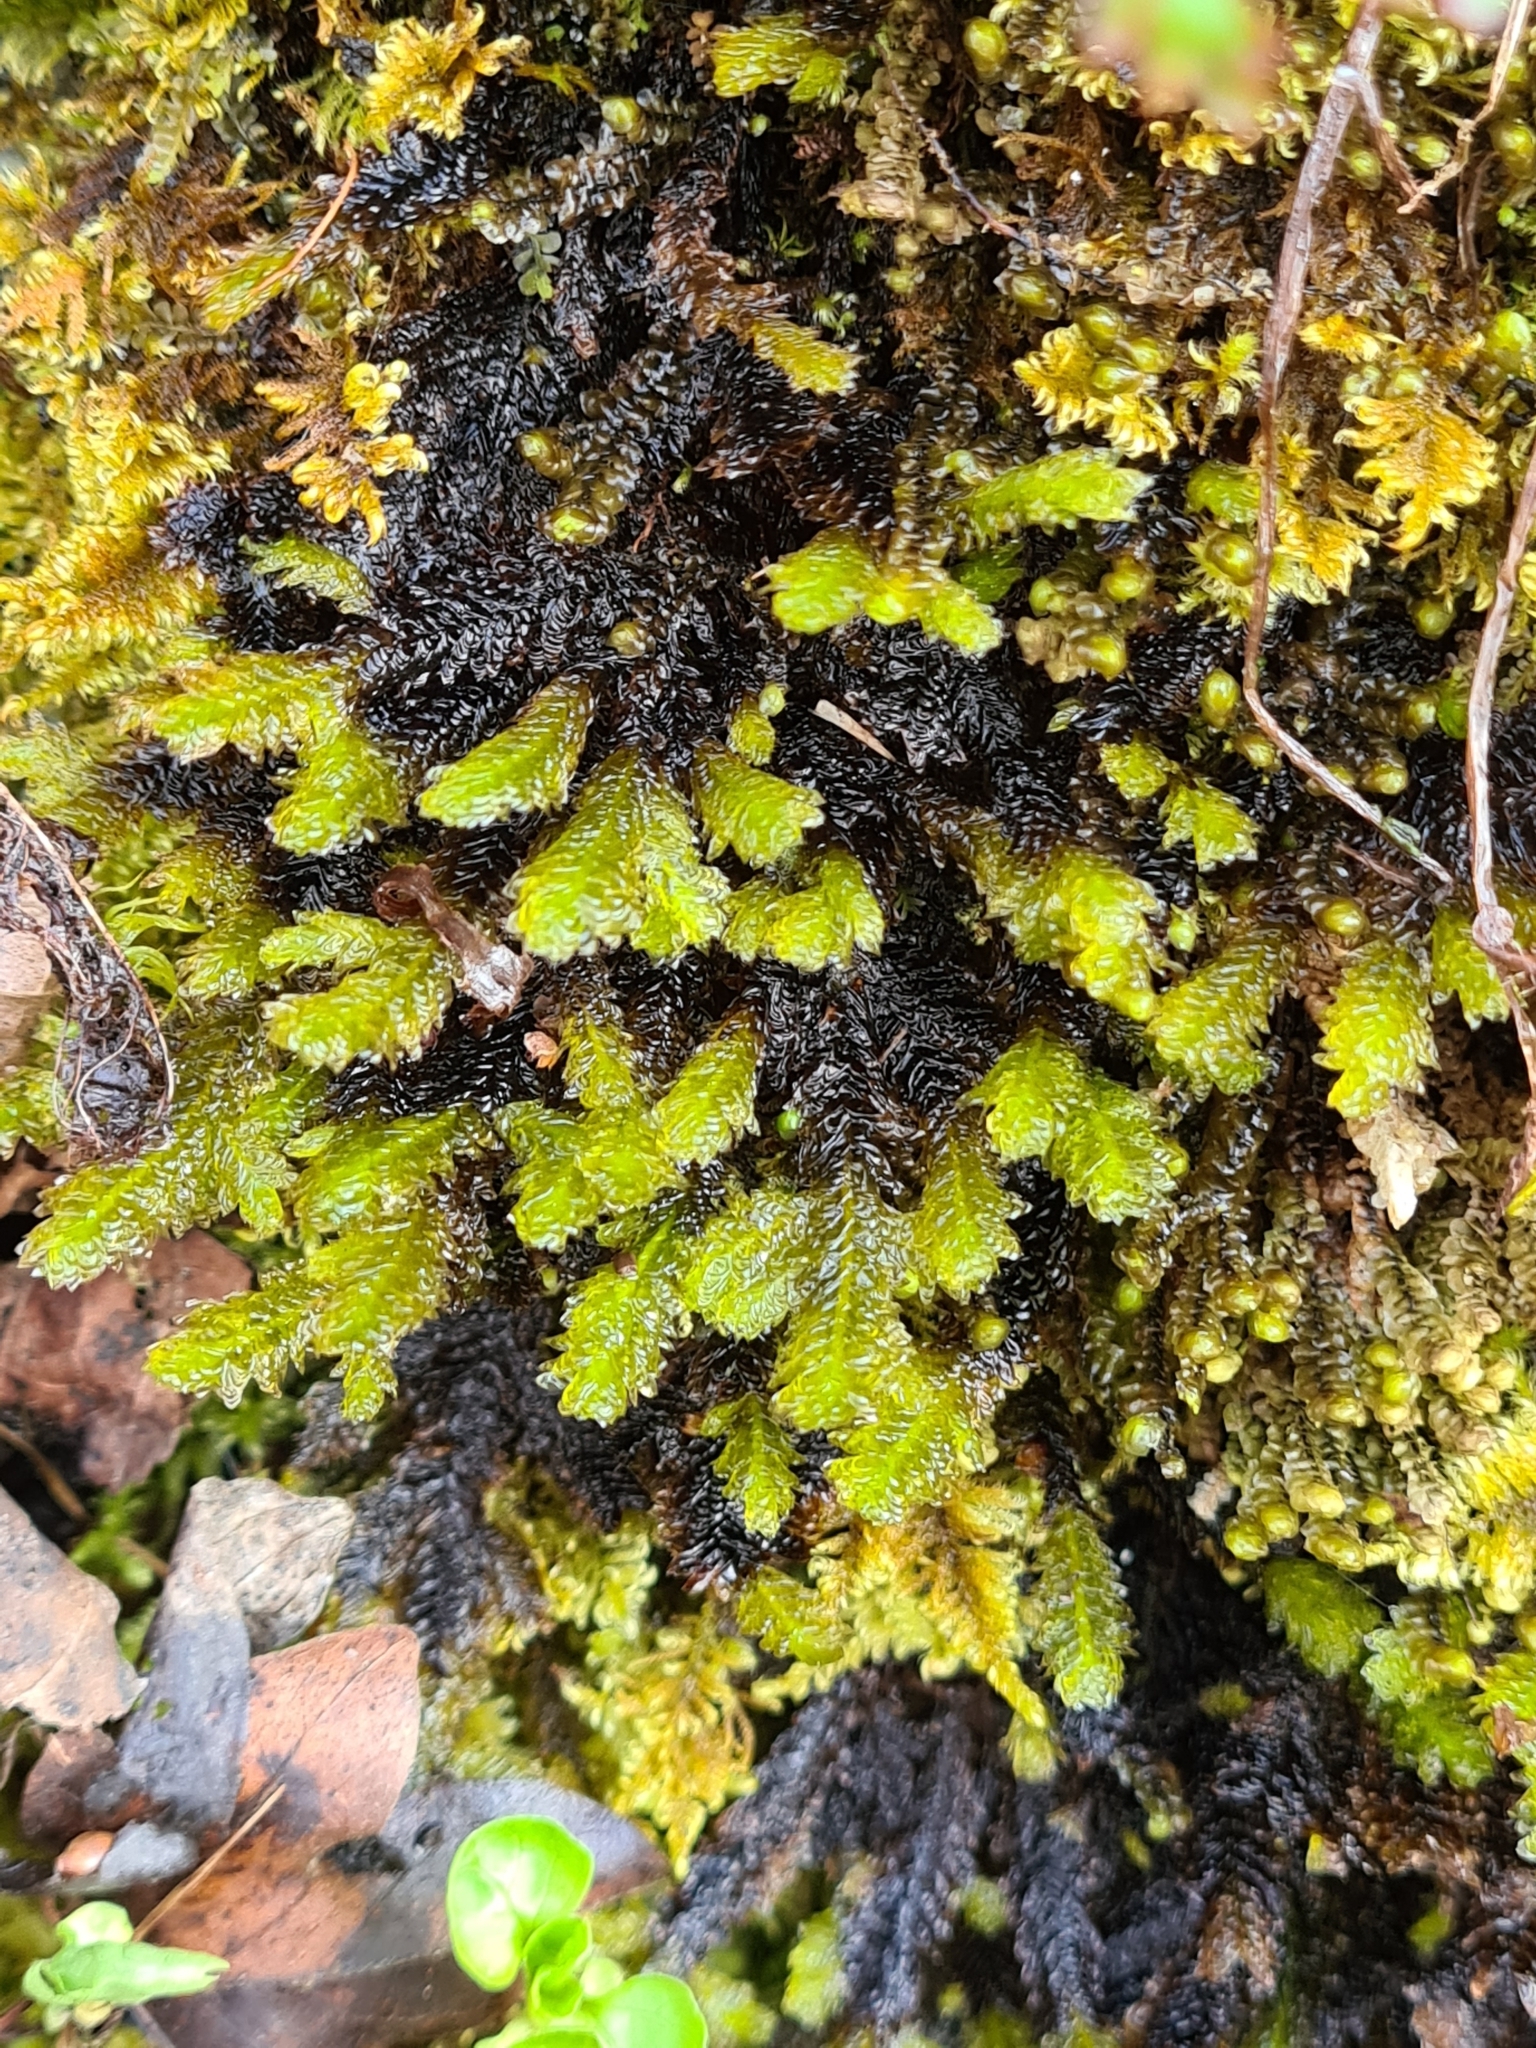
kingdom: Plantae
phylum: Bryophyta
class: Bryopsida
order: Hypnales
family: Neckeraceae
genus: Exsertotheca
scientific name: Exsertotheca crispa
